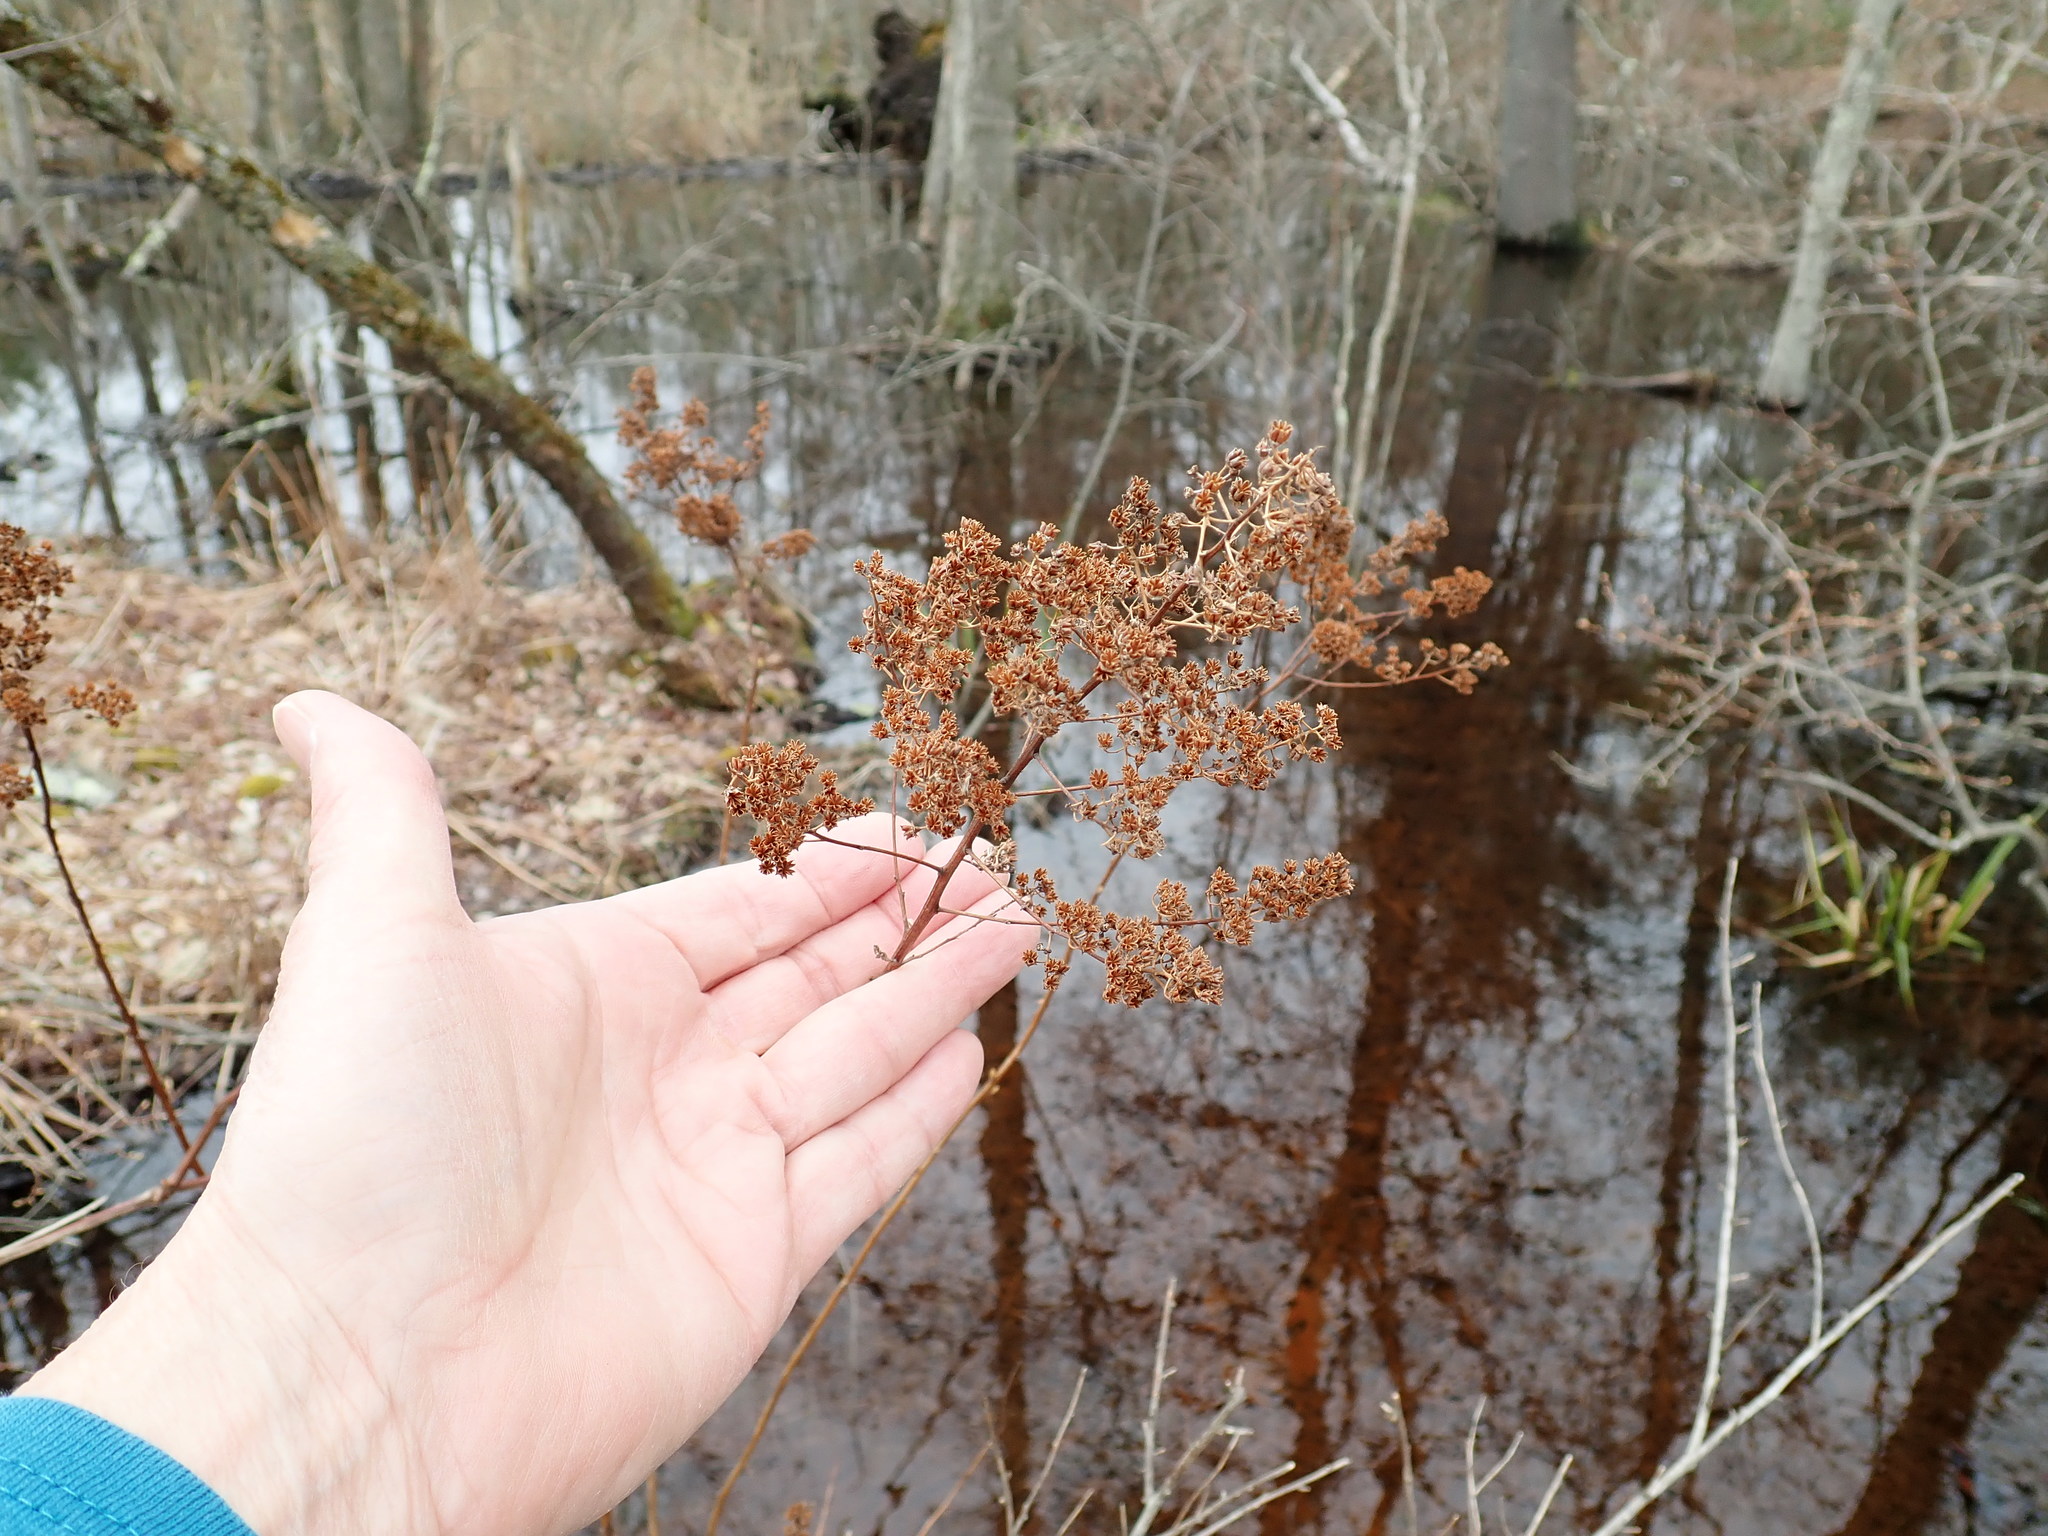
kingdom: Plantae
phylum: Tracheophyta
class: Magnoliopsida
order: Rosales
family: Rosaceae
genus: Spiraea
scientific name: Spiraea alba
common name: Pale bridewort
